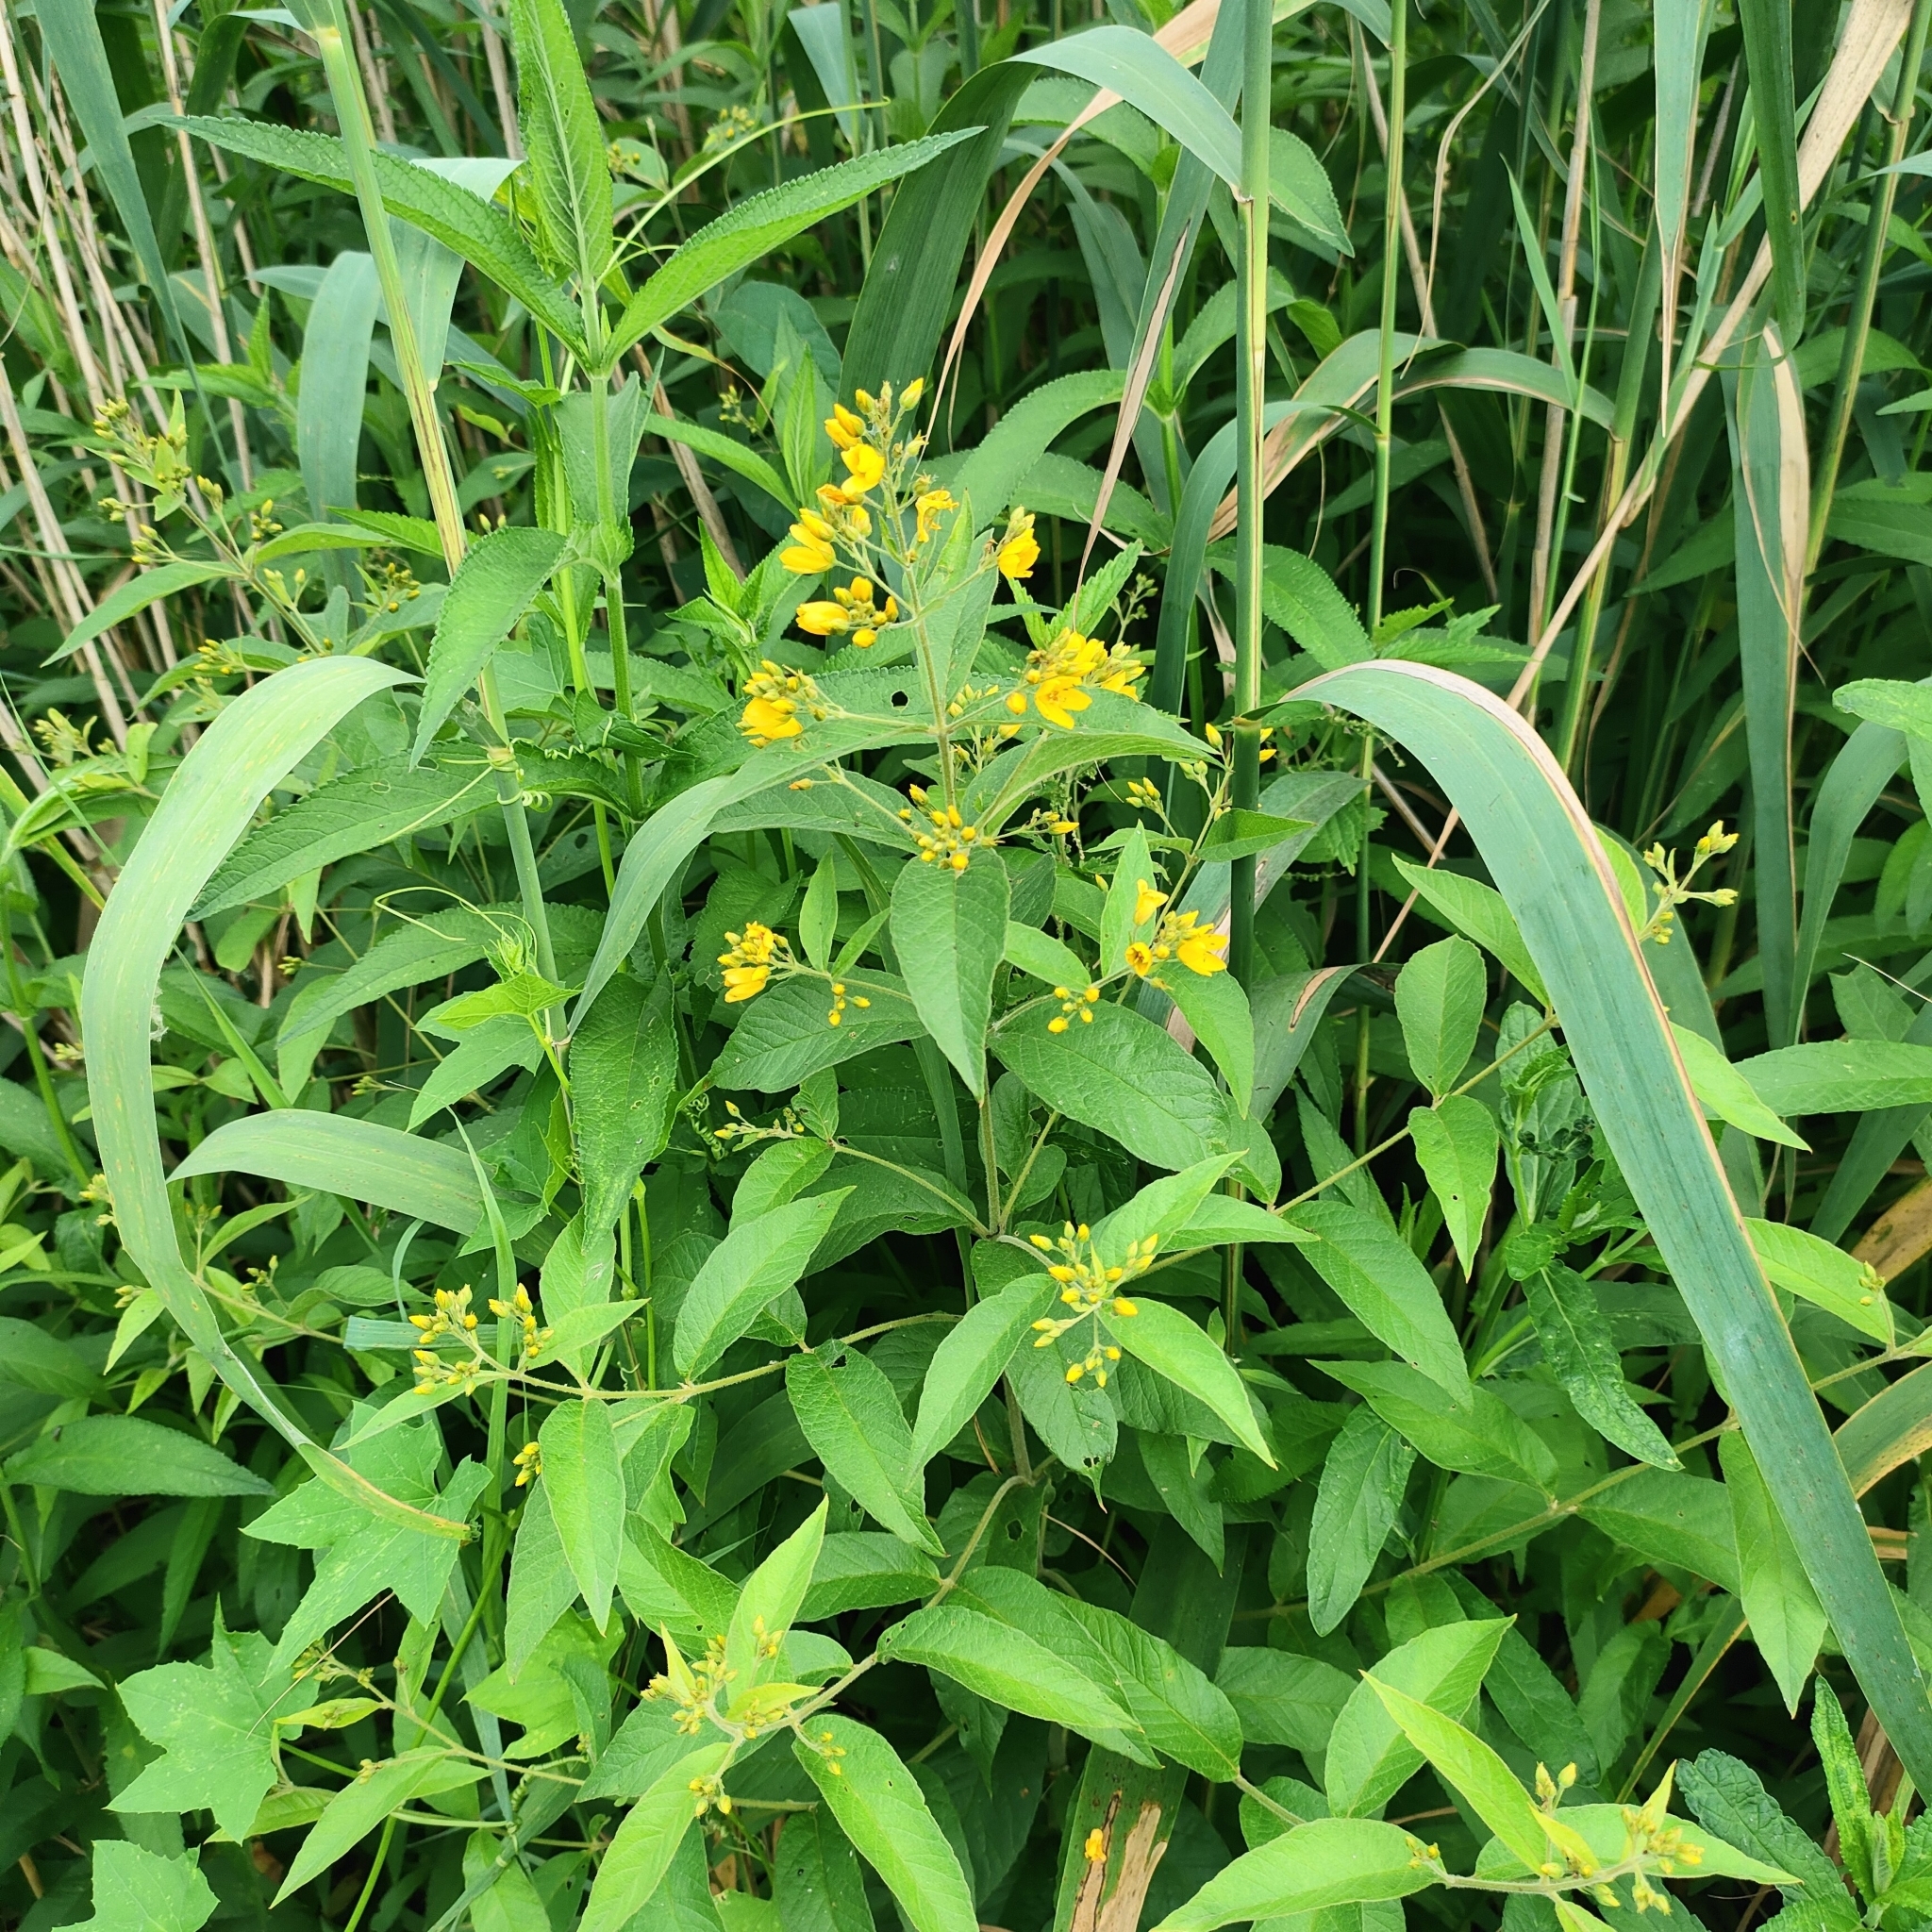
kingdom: Plantae
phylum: Tracheophyta
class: Magnoliopsida
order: Ericales
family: Primulaceae
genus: Lysimachia
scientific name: Lysimachia vulgaris
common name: Yellow loosestrife
